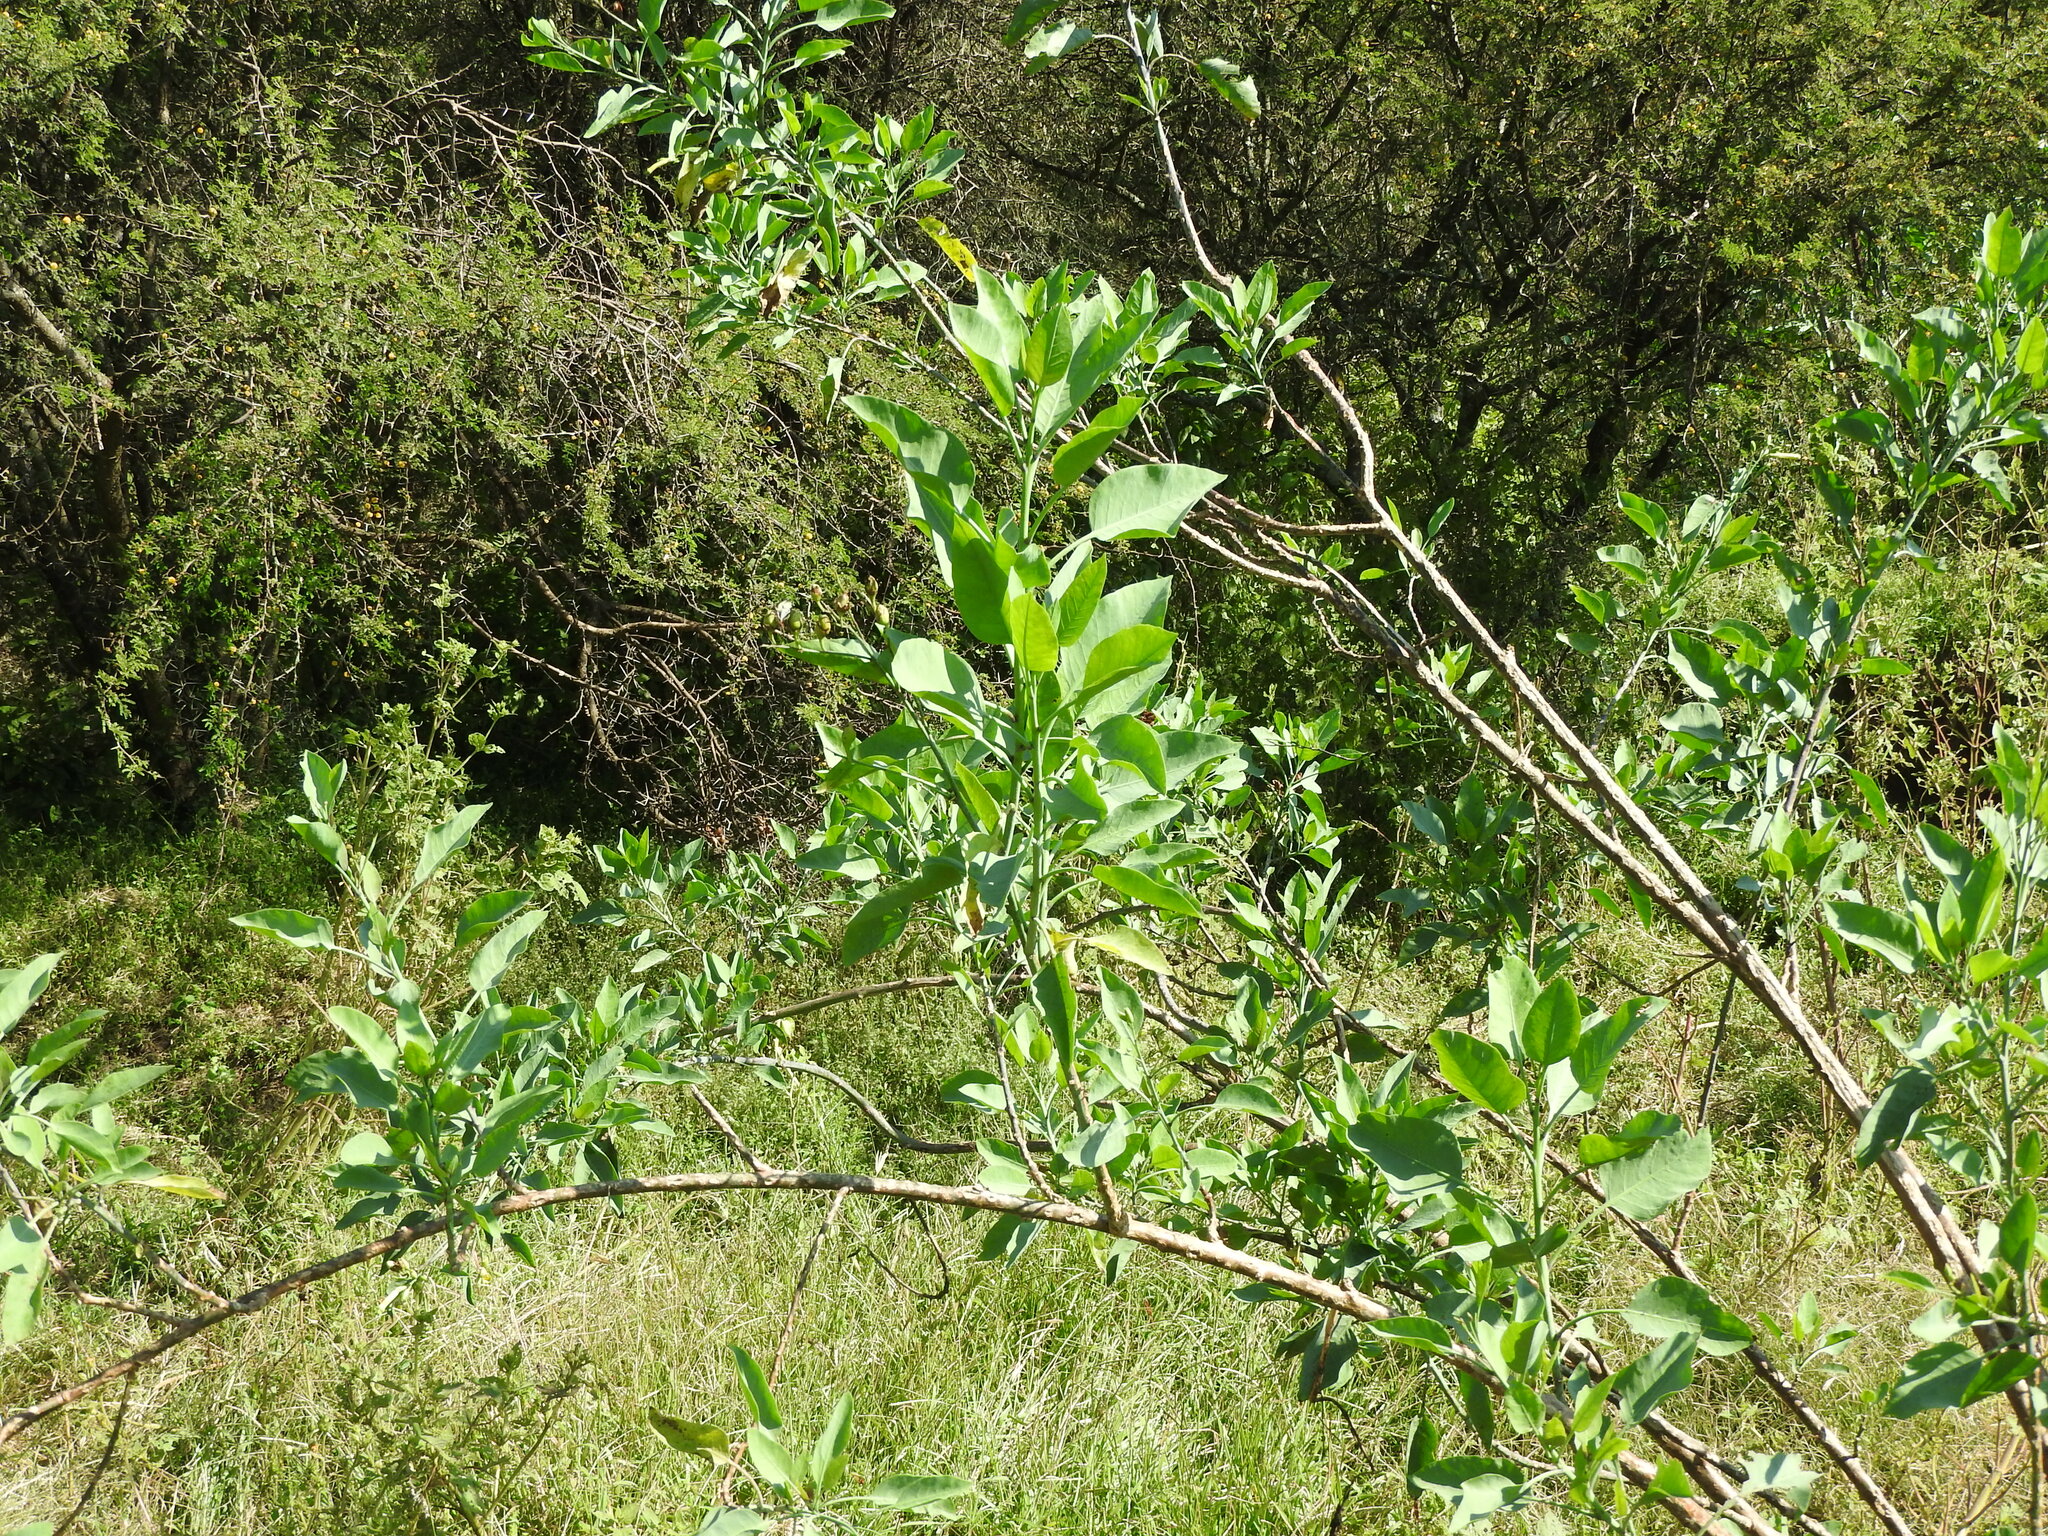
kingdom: Plantae
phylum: Tracheophyta
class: Magnoliopsida
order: Solanales
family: Solanaceae
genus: Nicotiana
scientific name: Nicotiana glauca
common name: Tree tobacco
